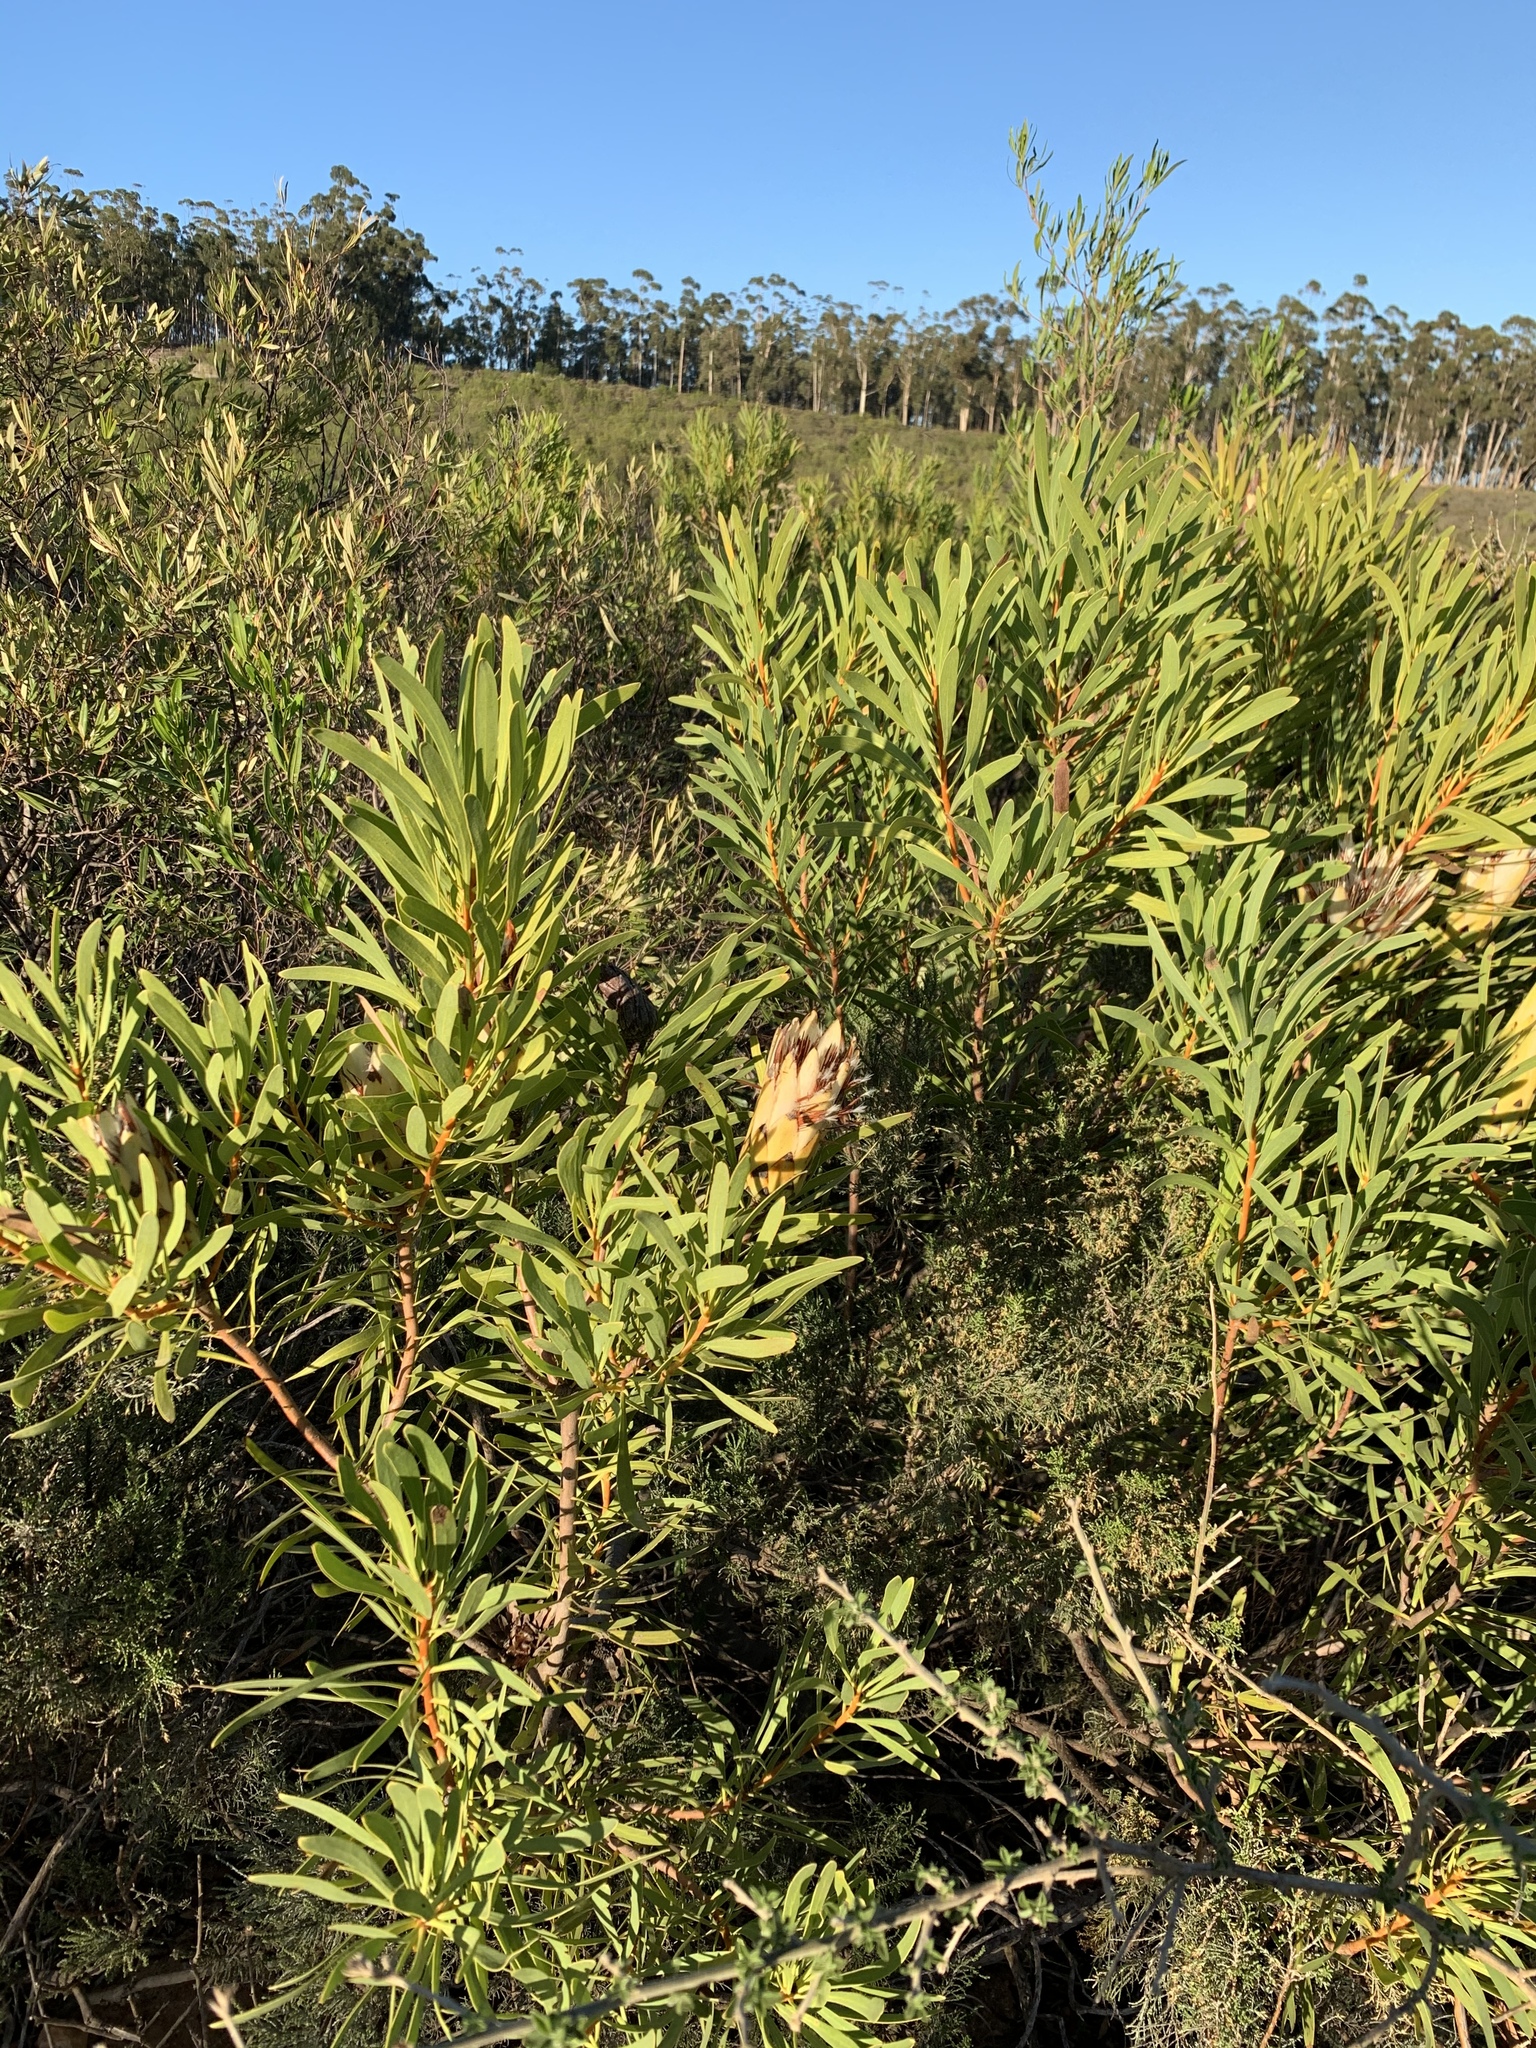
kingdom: Plantae
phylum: Tracheophyta
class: Magnoliopsida
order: Proteales
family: Proteaceae
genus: Protea
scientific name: Protea repens
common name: Sugarbush
